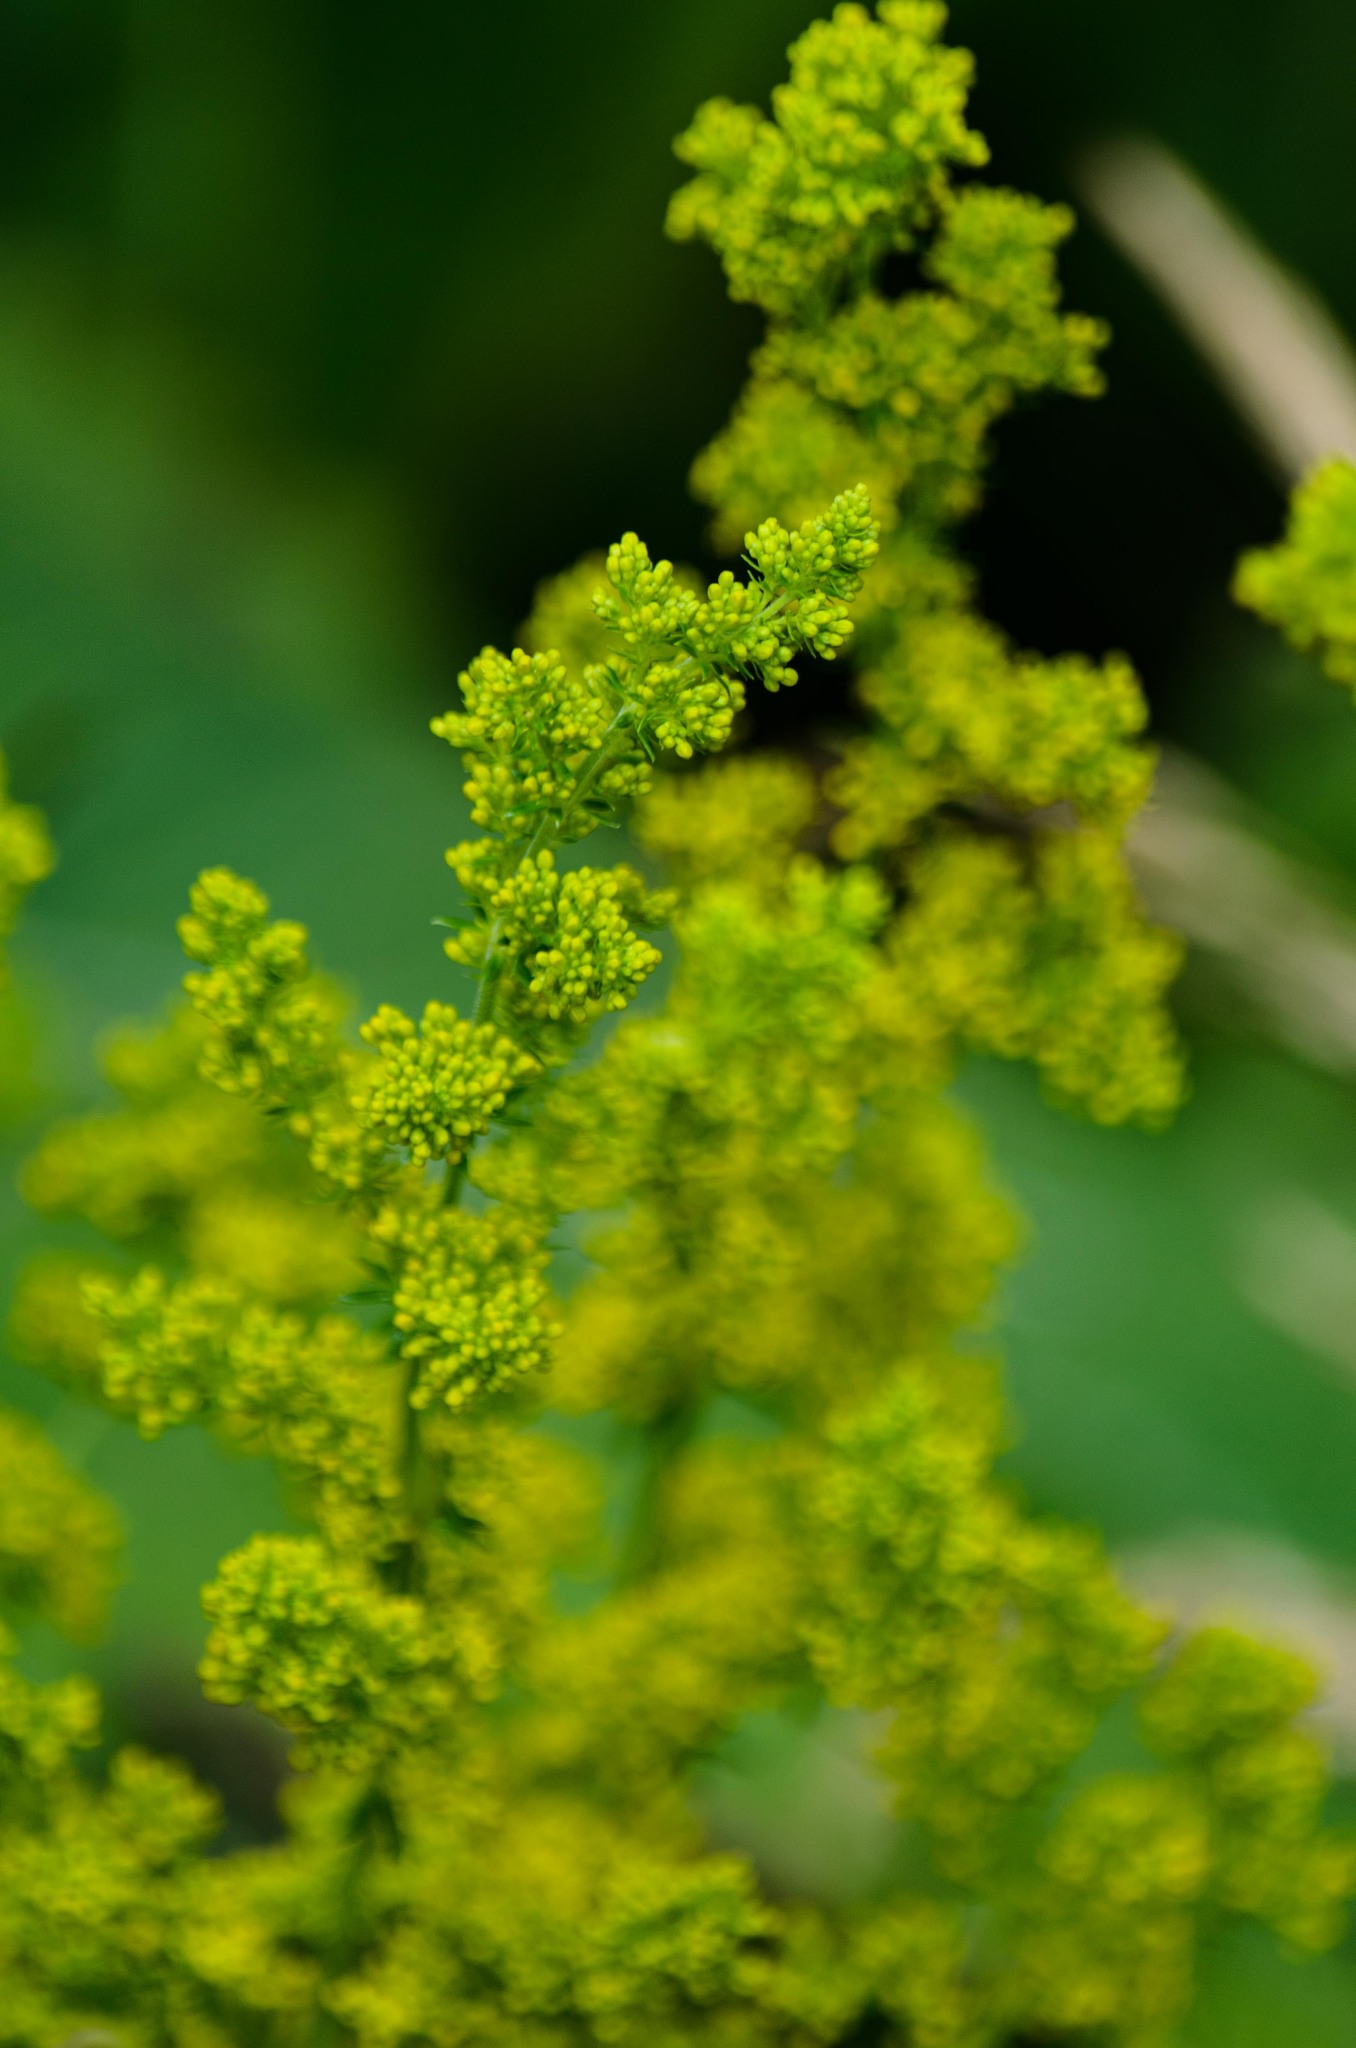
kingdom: Plantae
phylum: Tracheophyta
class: Magnoliopsida
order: Gentianales
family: Rubiaceae
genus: Galium
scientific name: Galium verum
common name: Lady's bedstraw
